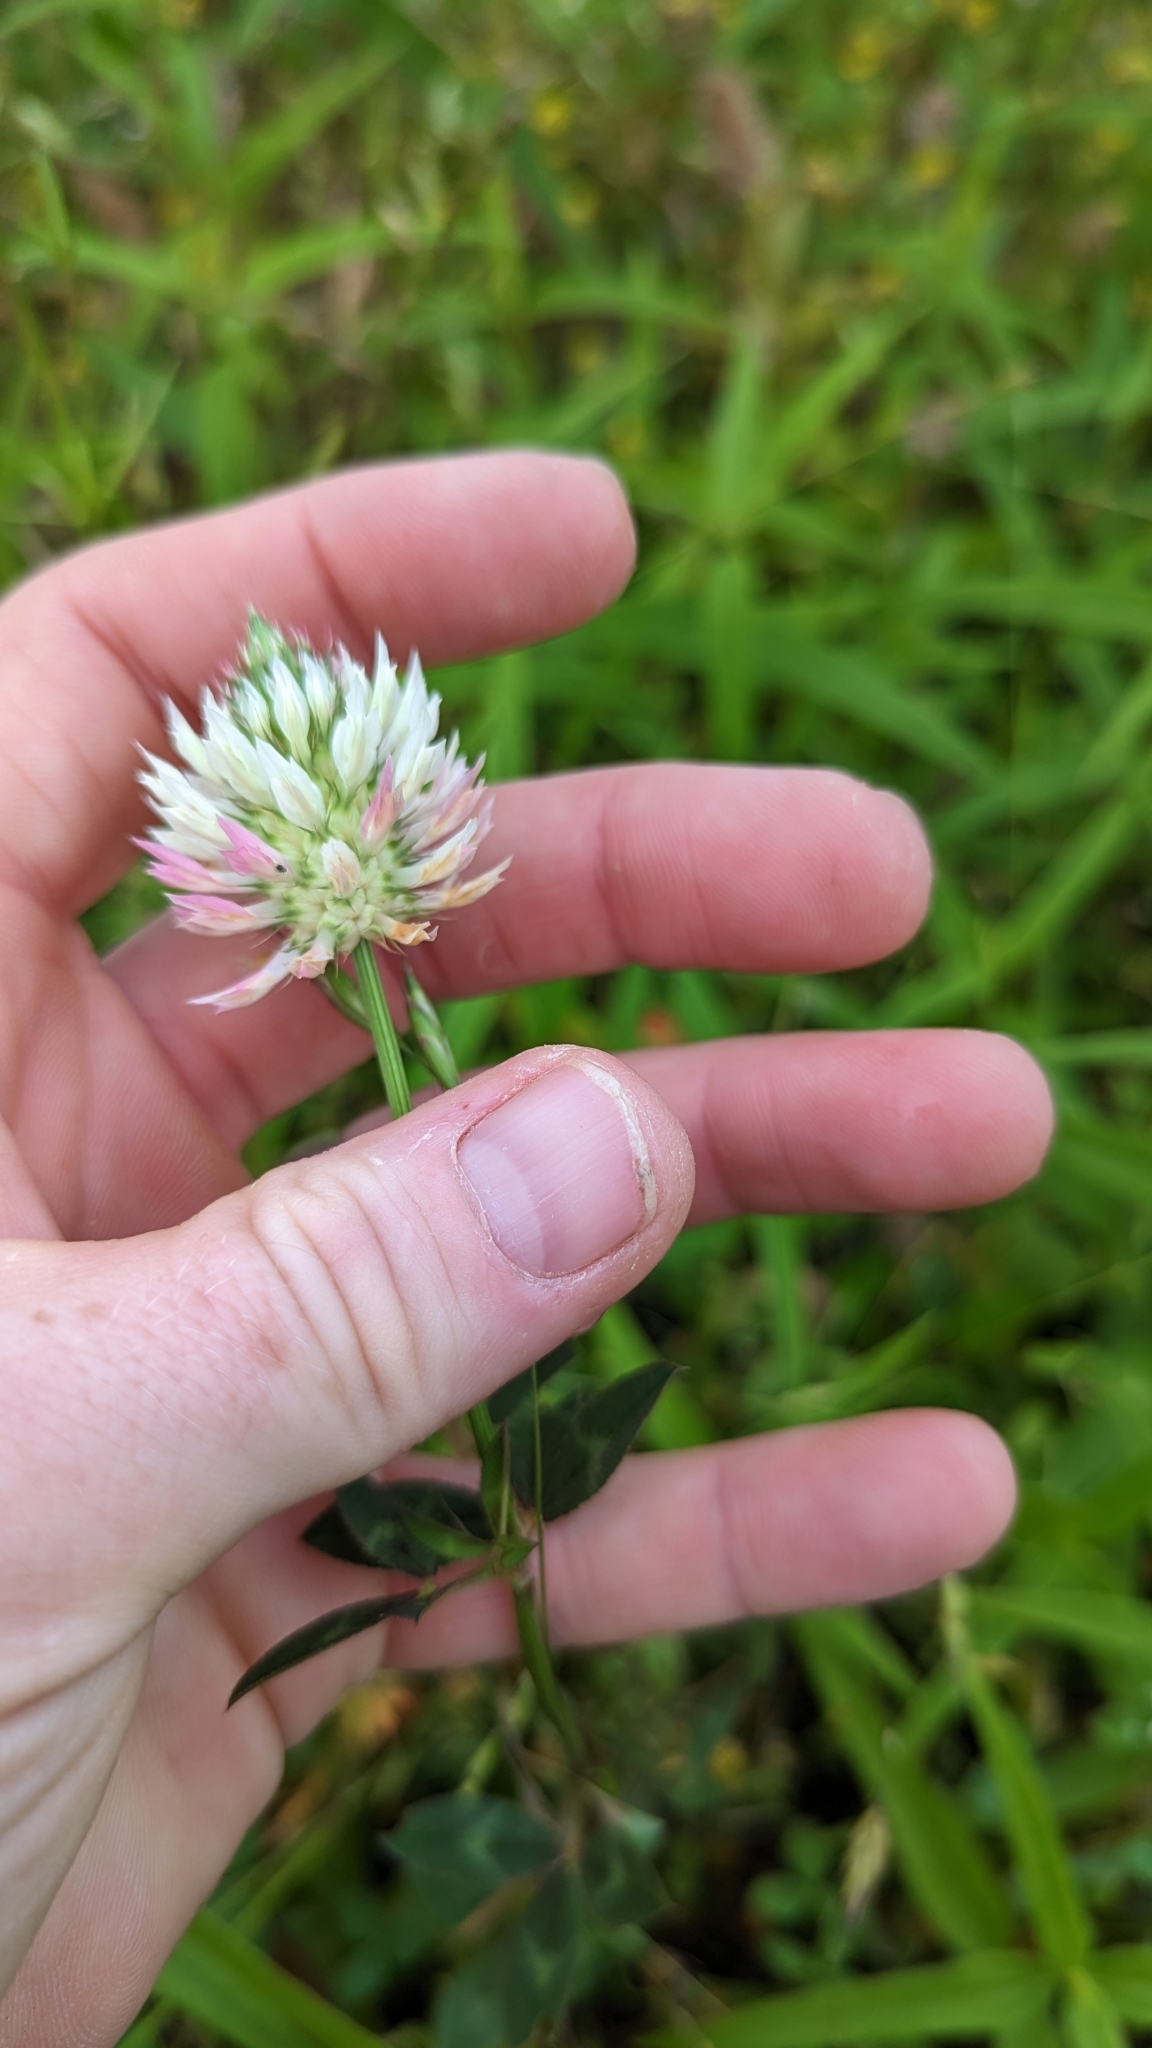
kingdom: Plantae
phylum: Tracheophyta
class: Magnoliopsida
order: Fabales
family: Fabaceae
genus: Trifolium
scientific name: Trifolium vesiculosum
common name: Arrowleaf clover
